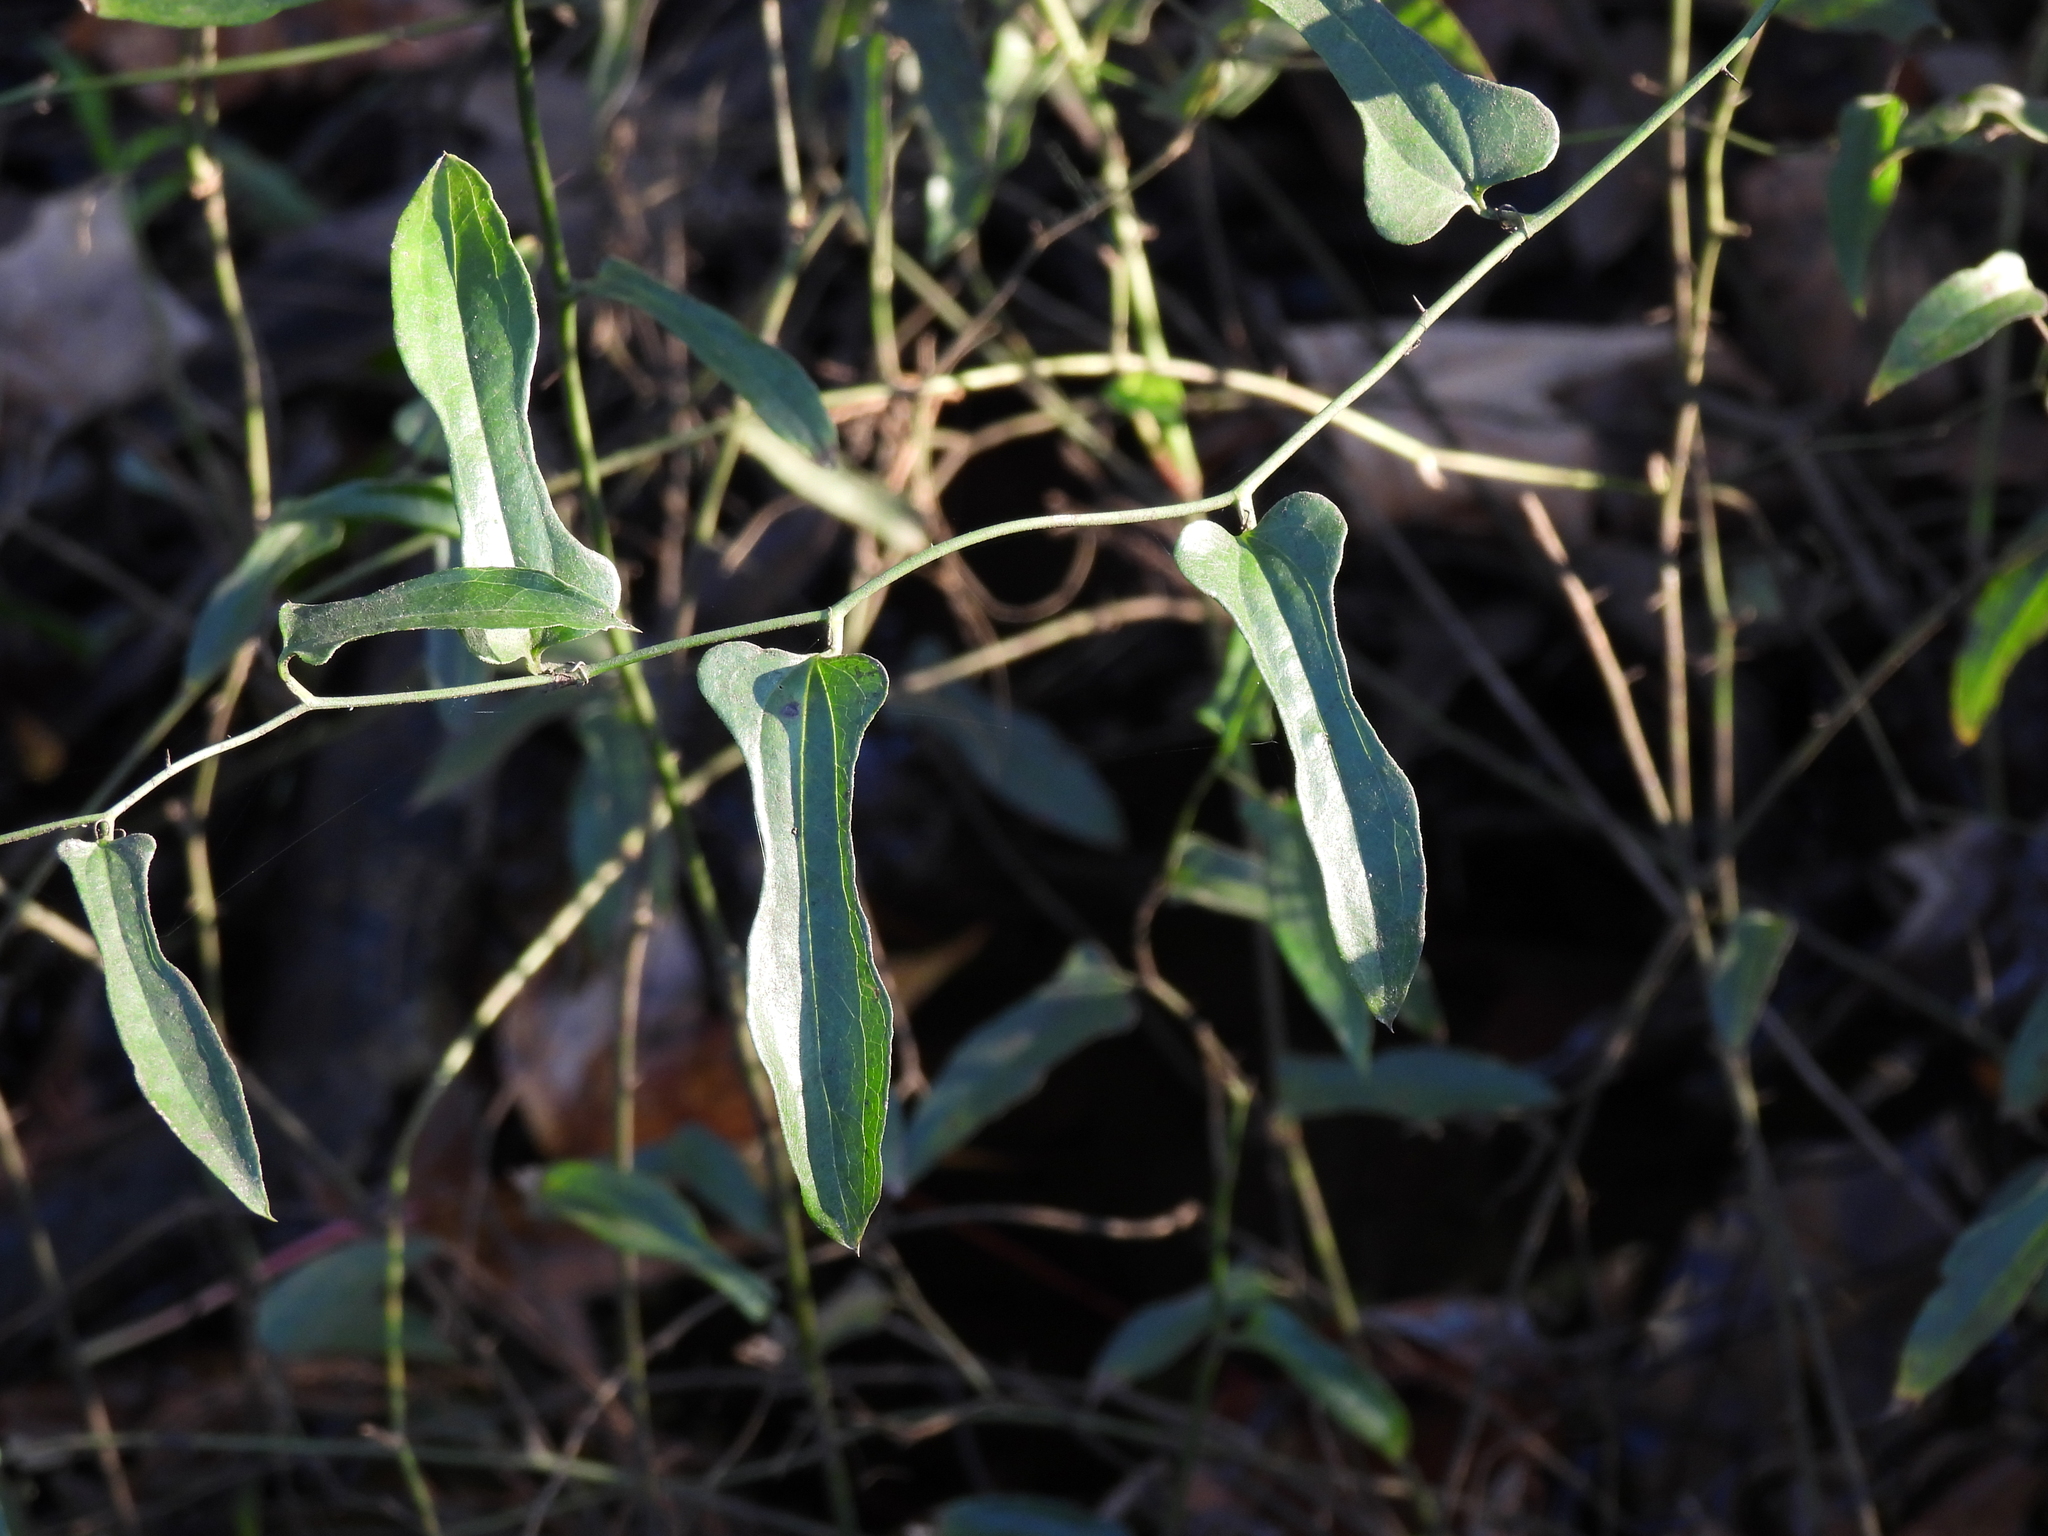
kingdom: Plantae
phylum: Tracheophyta
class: Liliopsida
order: Liliales
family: Smilacaceae
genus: Smilax
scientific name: Smilax bona-nox
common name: Catbrier
